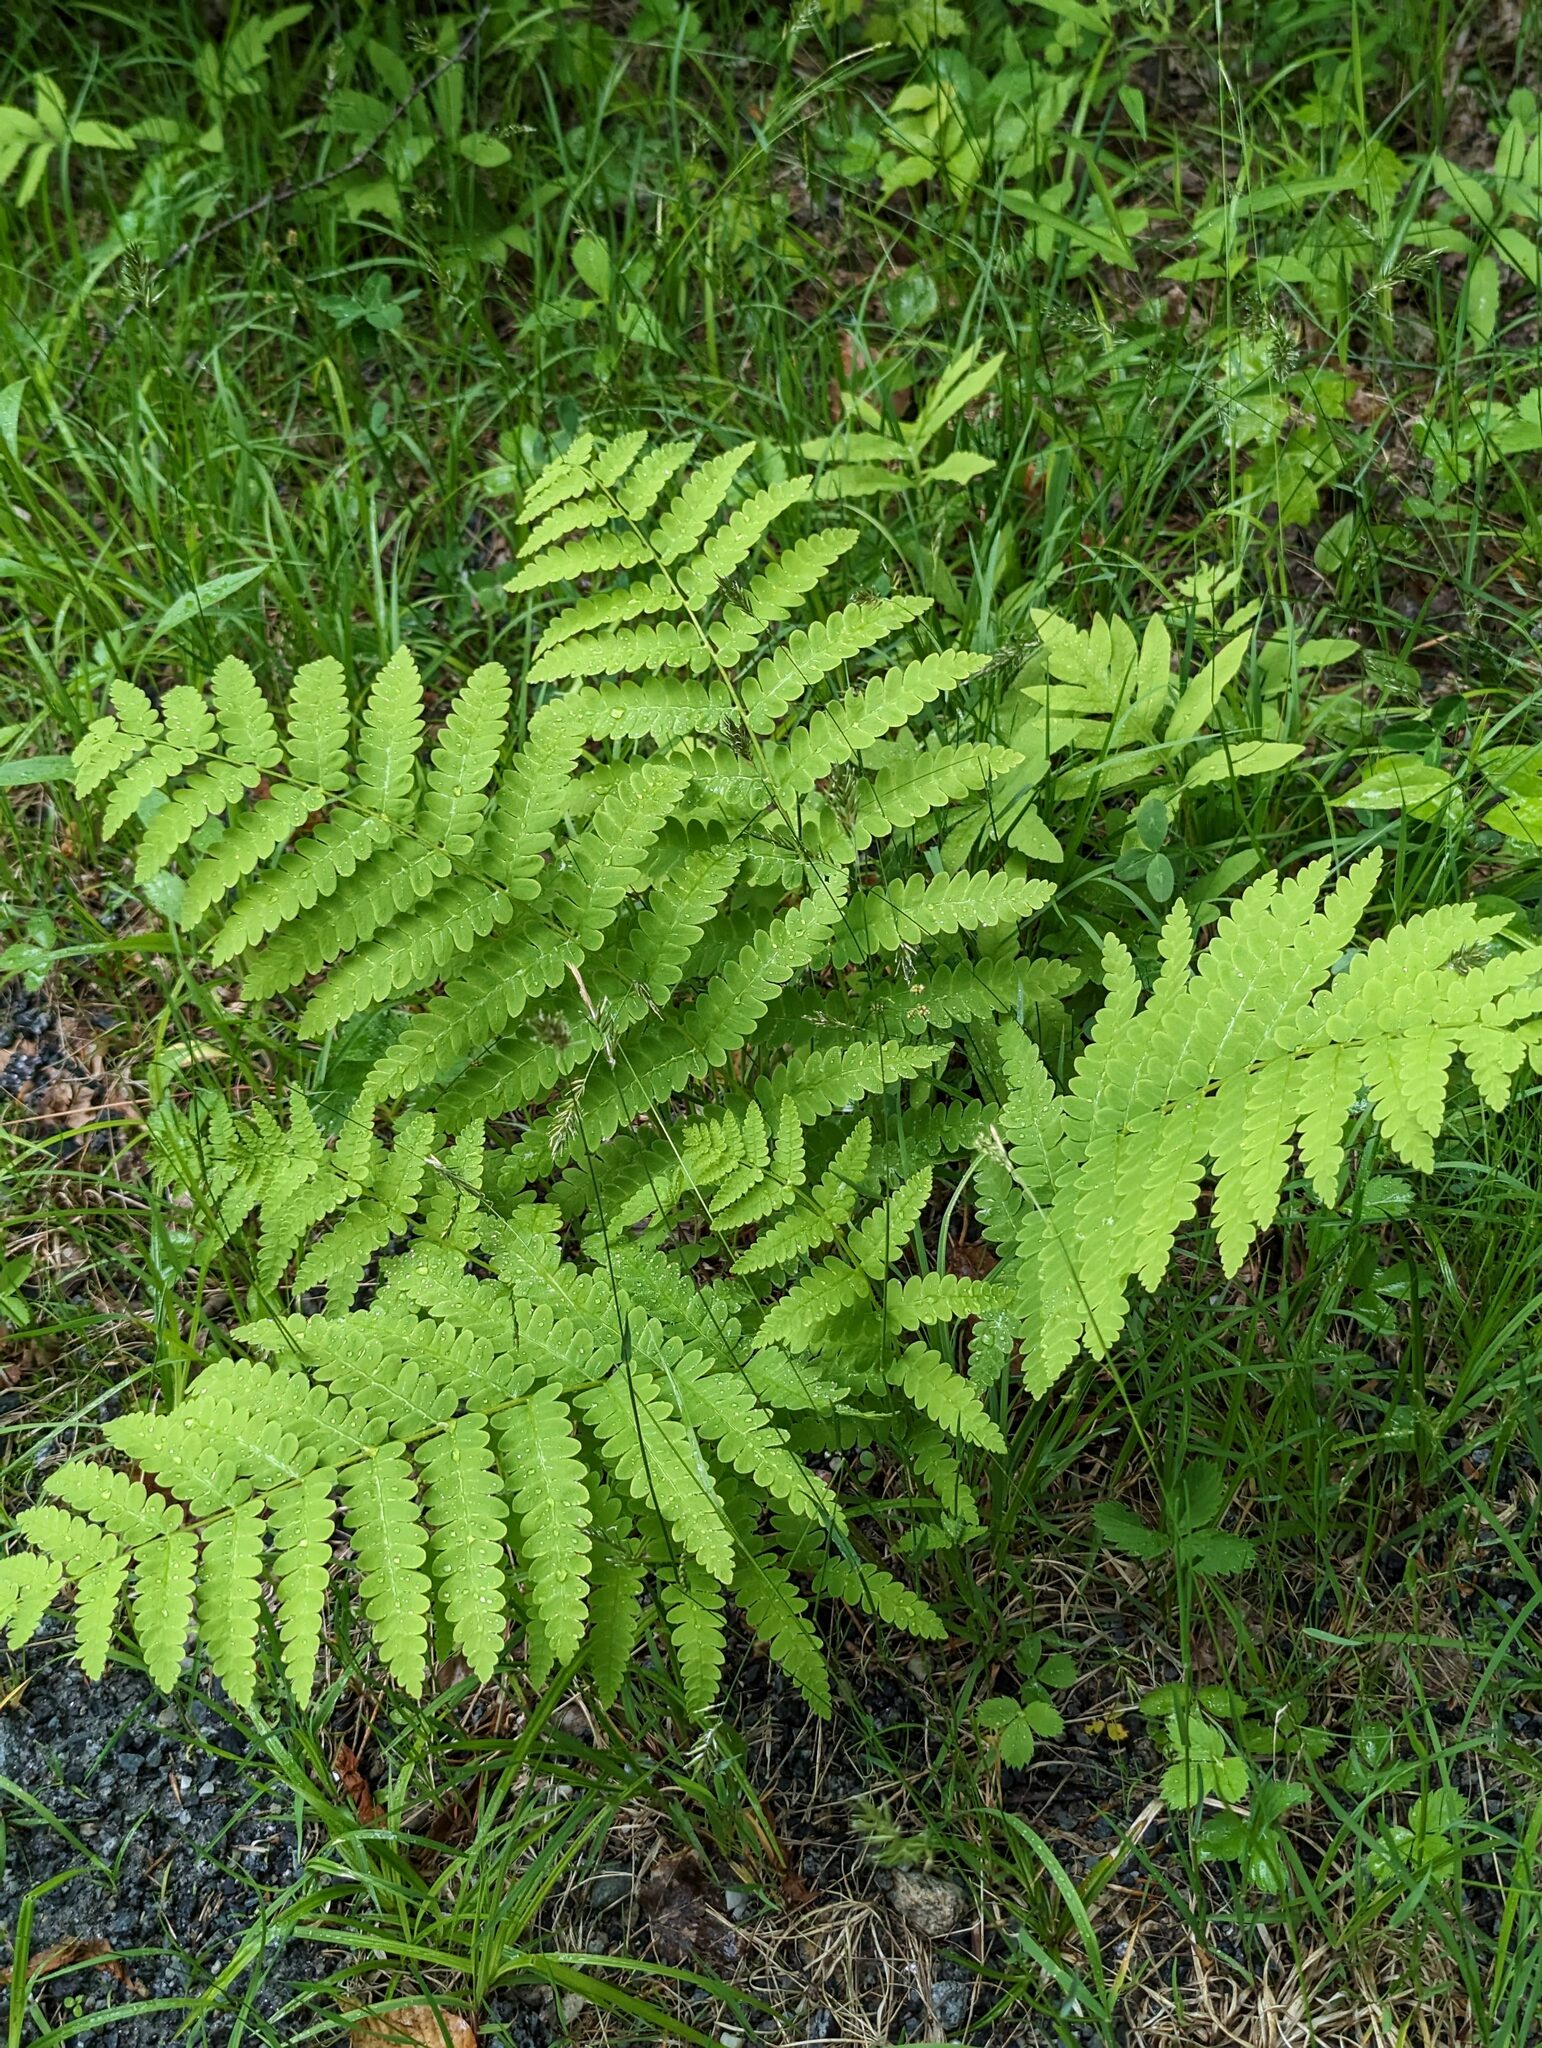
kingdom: Plantae
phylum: Tracheophyta
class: Polypodiopsida
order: Osmundales
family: Osmundaceae
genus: Claytosmunda
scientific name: Claytosmunda claytoniana
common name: Clayton's fern
